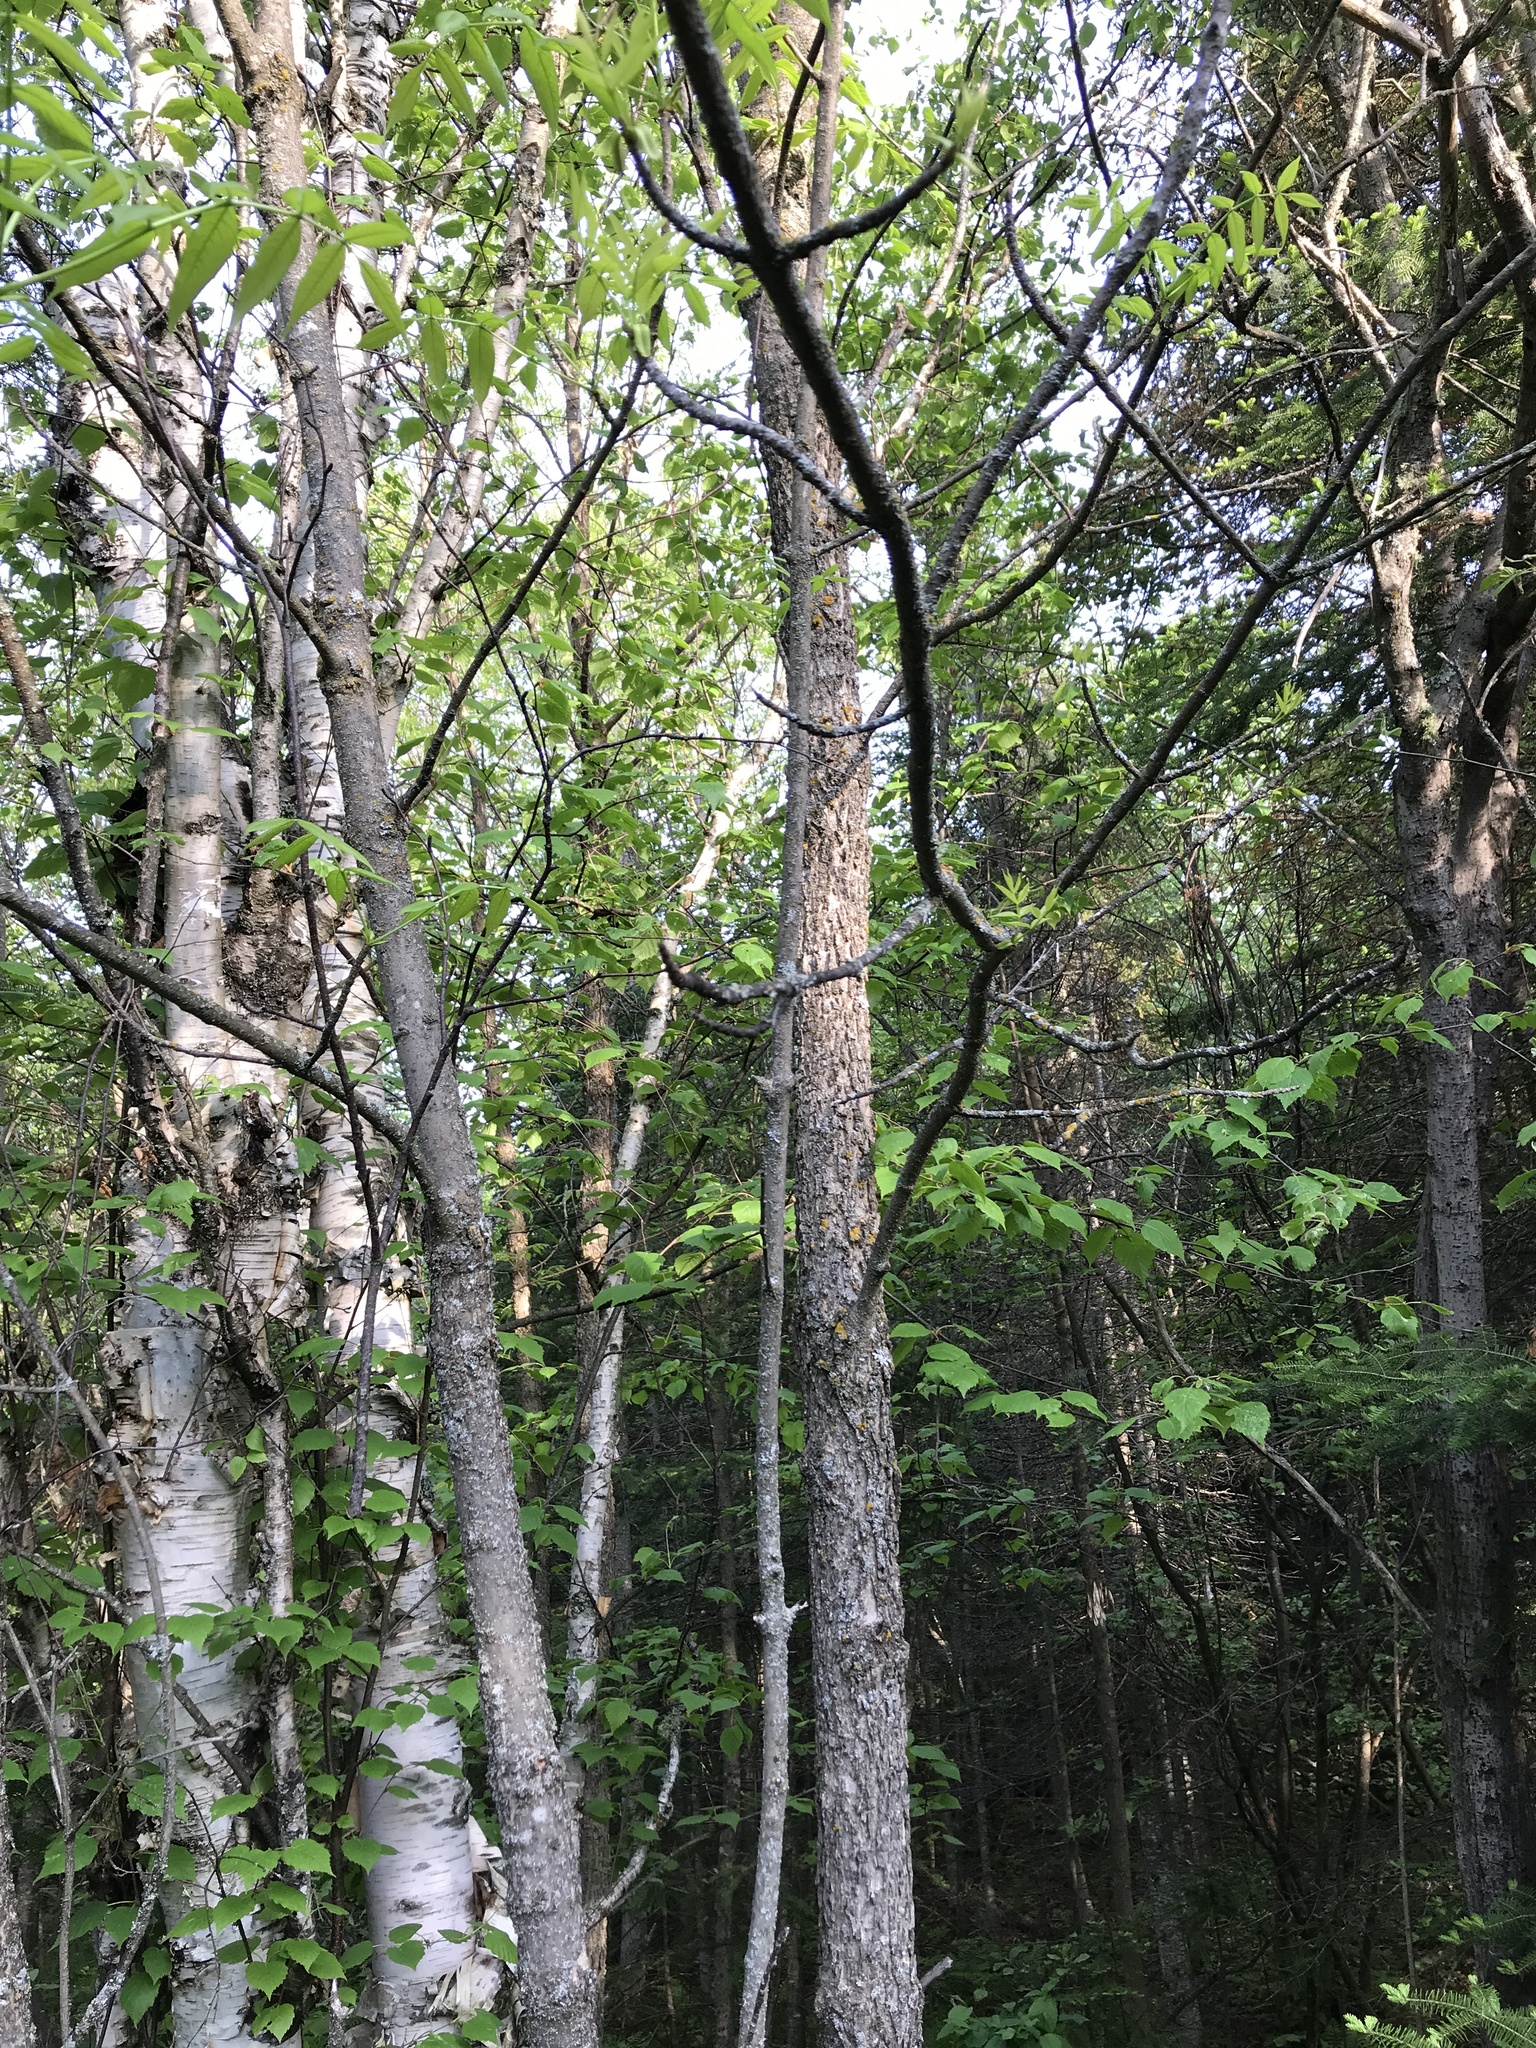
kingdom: Plantae
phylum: Tracheophyta
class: Magnoliopsida
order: Lamiales
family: Oleaceae
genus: Fraxinus
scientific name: Fraxinus nigra
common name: Black ash
